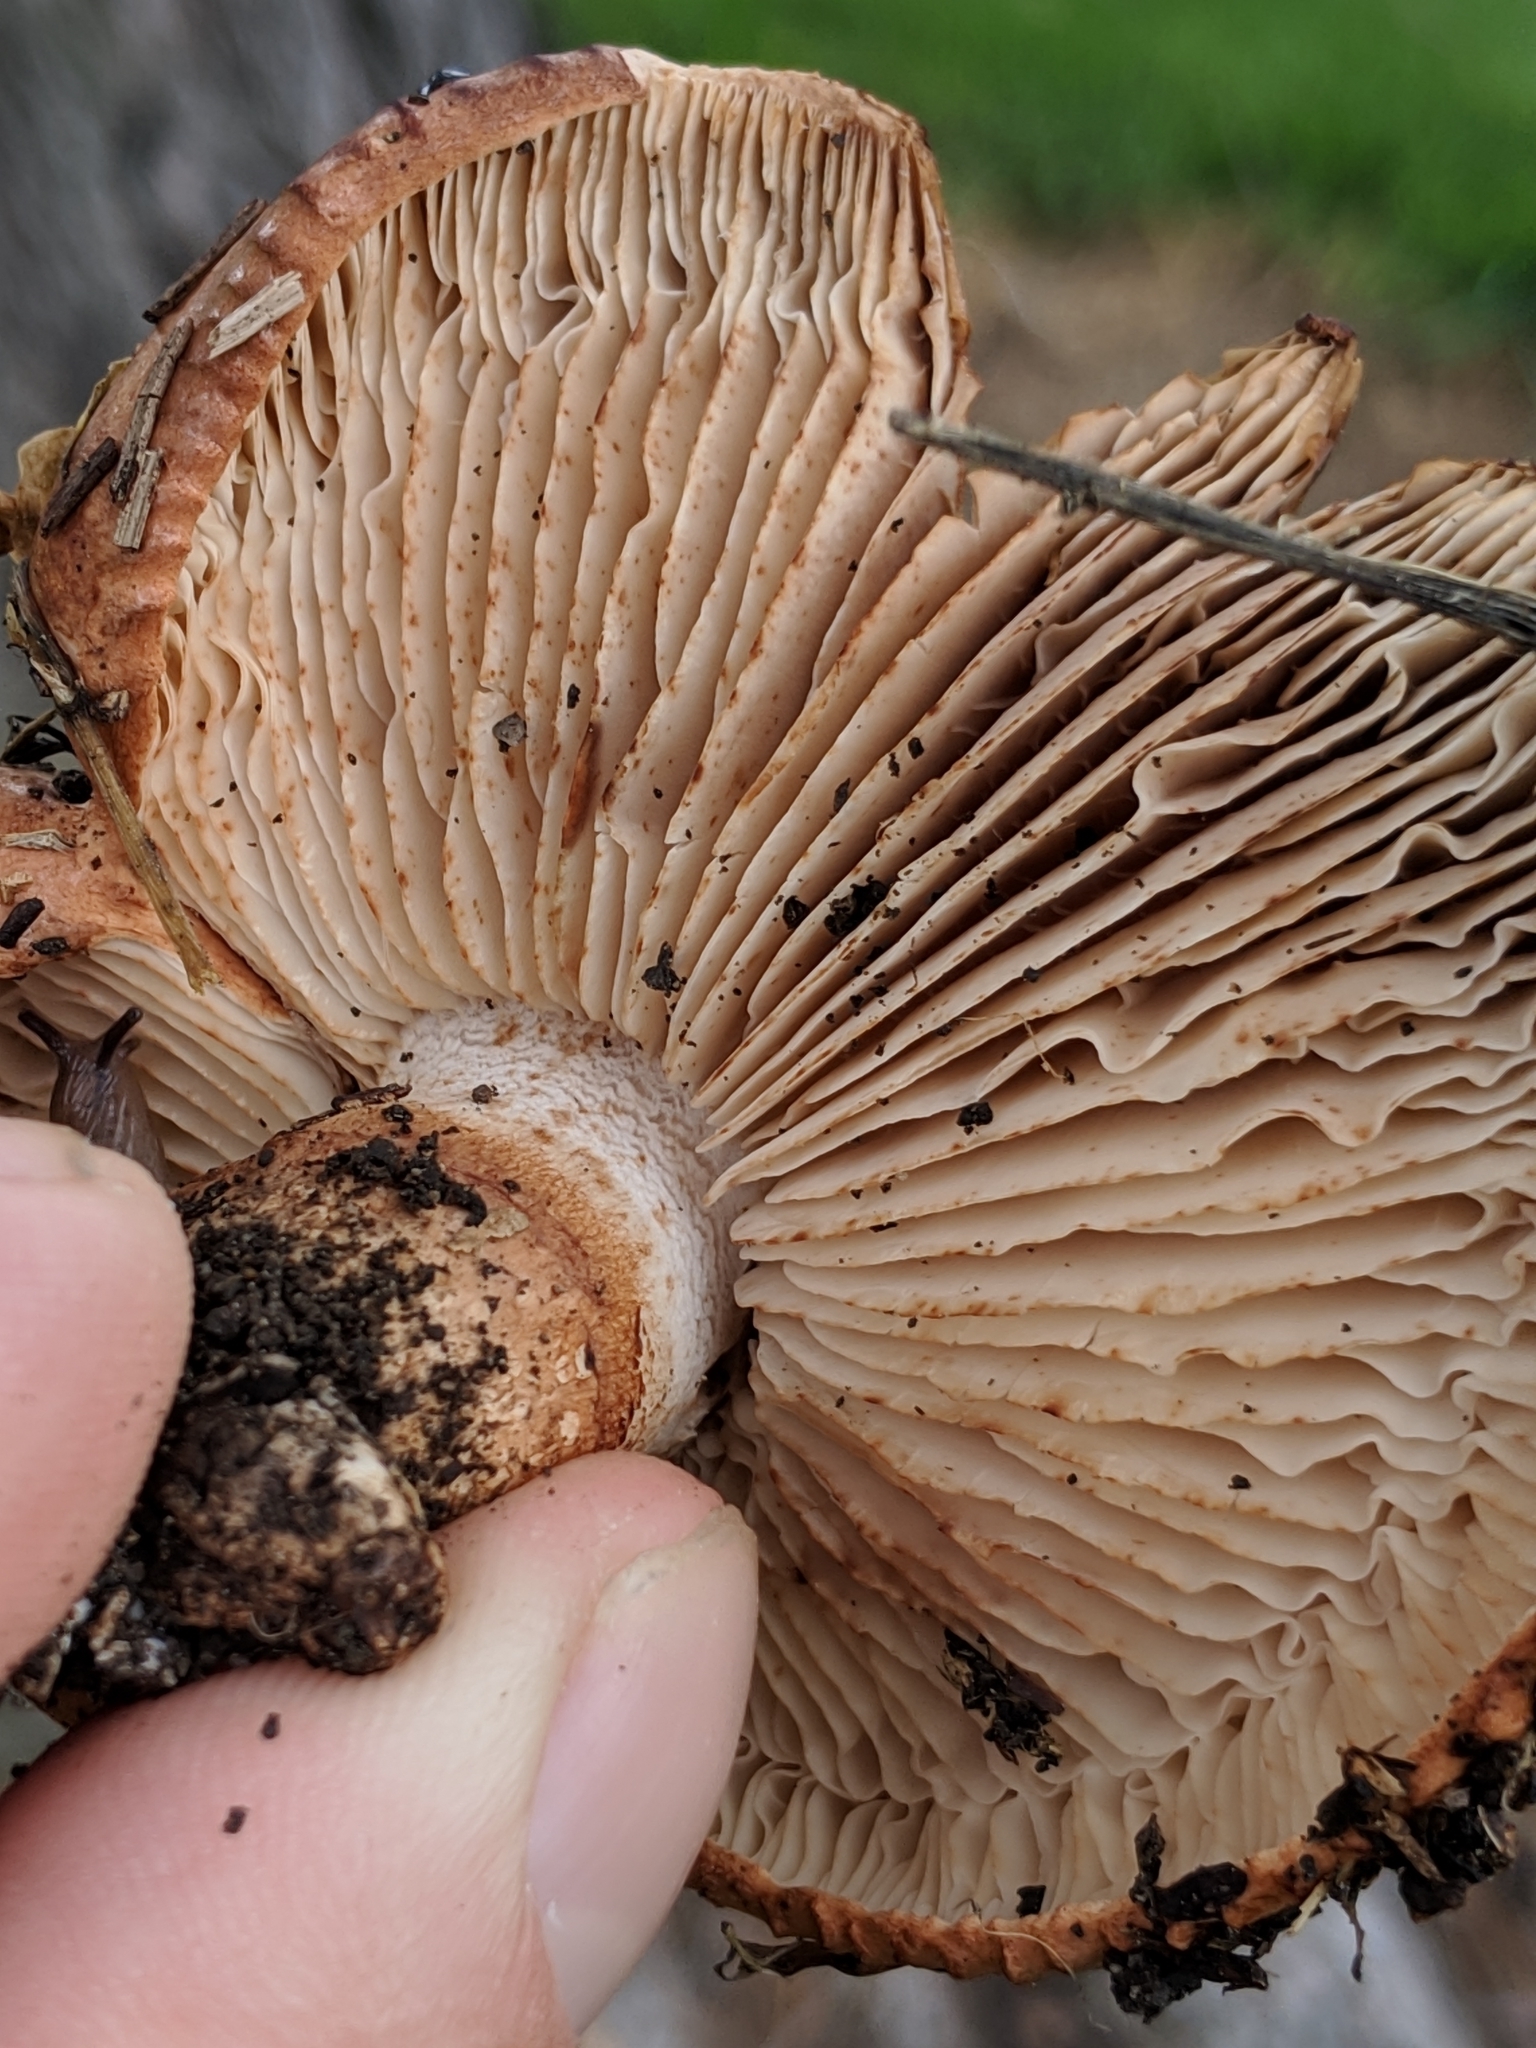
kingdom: Fungi
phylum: Basidiomycota
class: Agaricomycetes
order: Agaricales
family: Tricholomataceae
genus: Tricholoma
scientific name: Tricholoma imbricatum
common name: Matt knight
